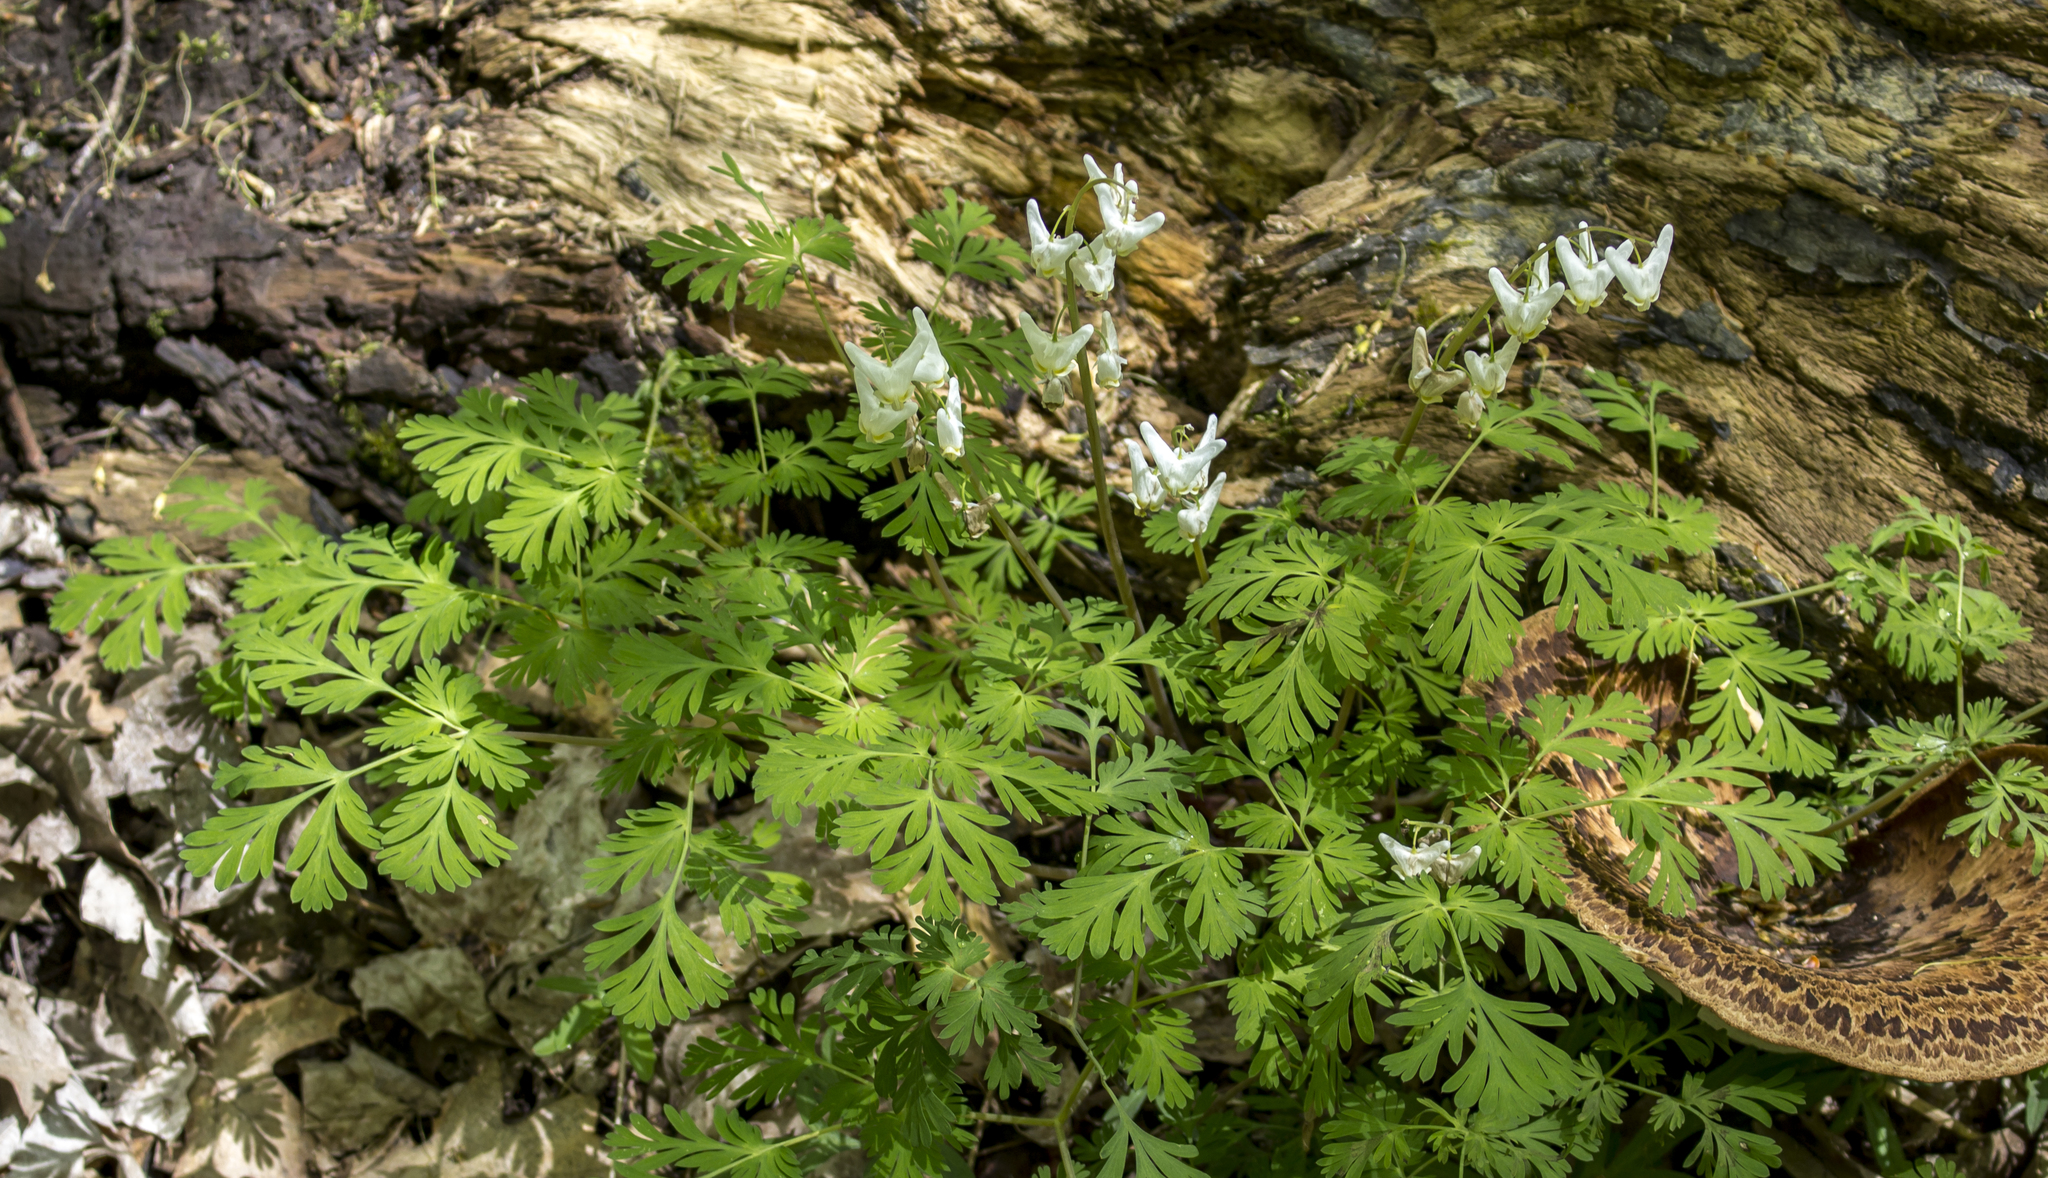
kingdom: Plantae
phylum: Tracheophyta
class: Magnoliopsida
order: Ranunculales
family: Papaveraceae
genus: Dicentra
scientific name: Dicentra cucullaria
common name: Dutchman's breeches
